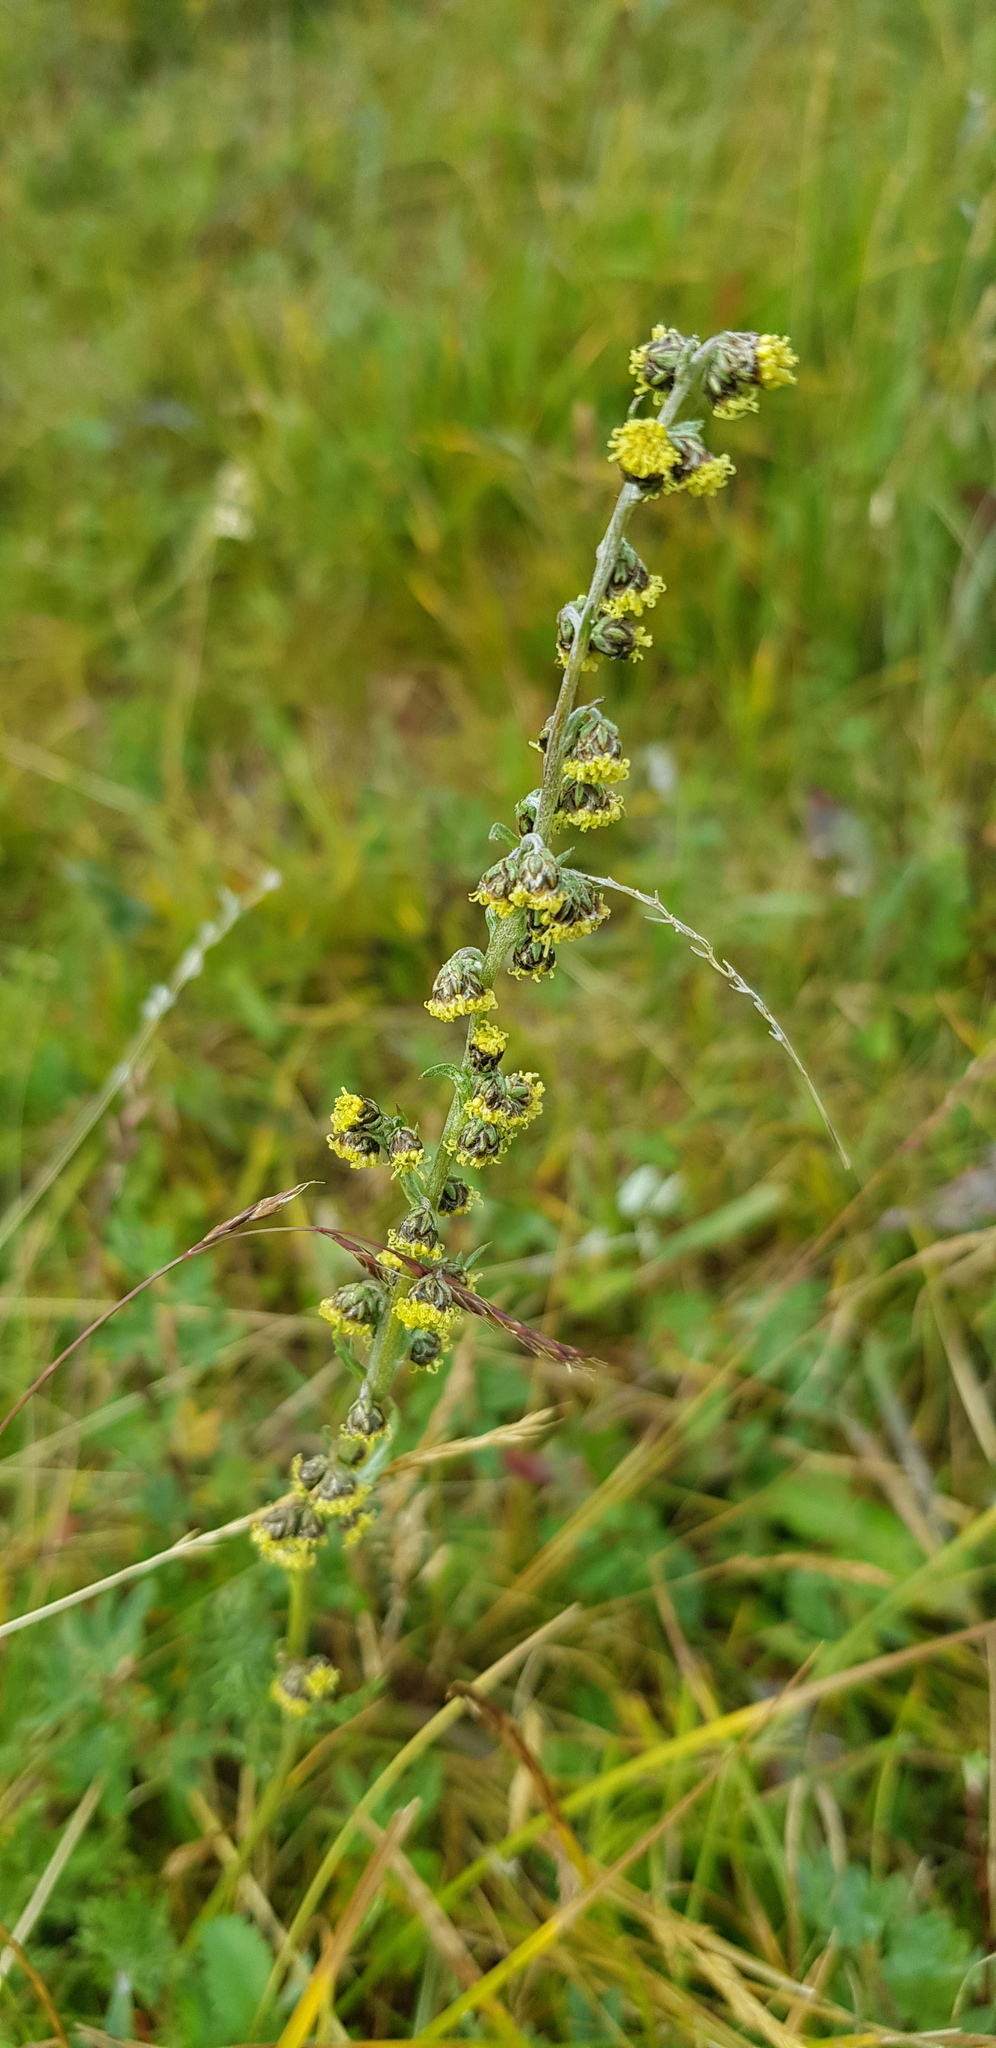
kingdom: Plantae
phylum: Tracheophyta
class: Magnoliopsida
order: Asterales
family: Asteraceae
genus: Artemisia
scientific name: Artemisia tanacetifolia
